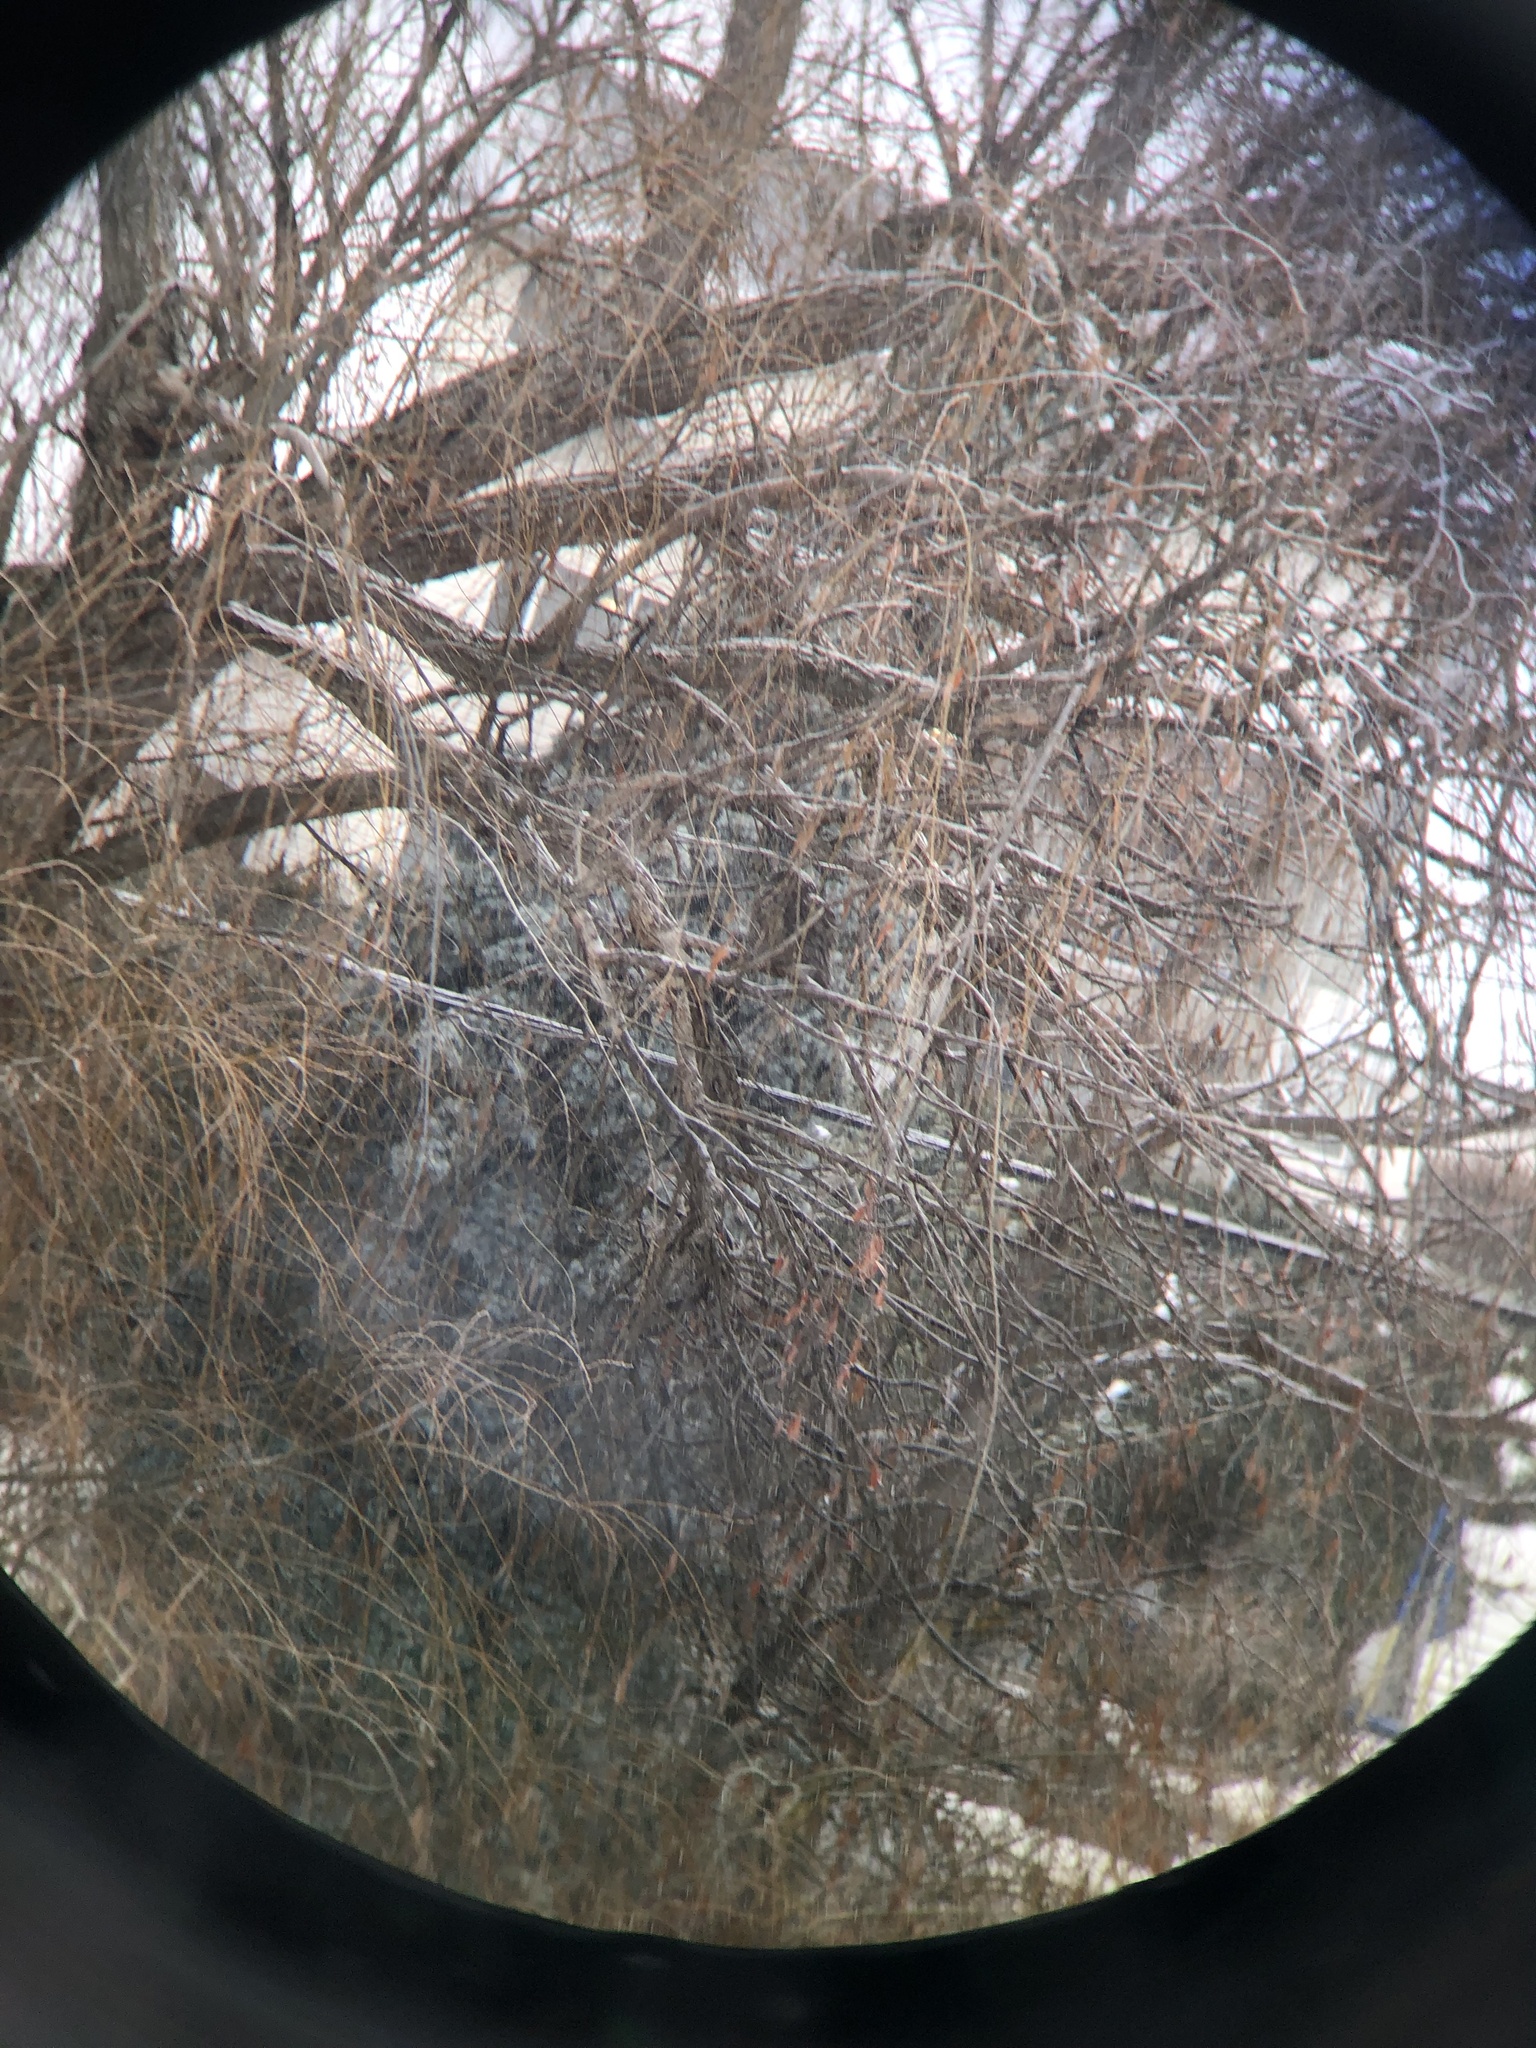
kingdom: Animalia
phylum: Chordata
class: Aves
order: Strigiformes
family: Strigidae
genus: Bubo
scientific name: Bubo virginianus
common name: Great horned owl
